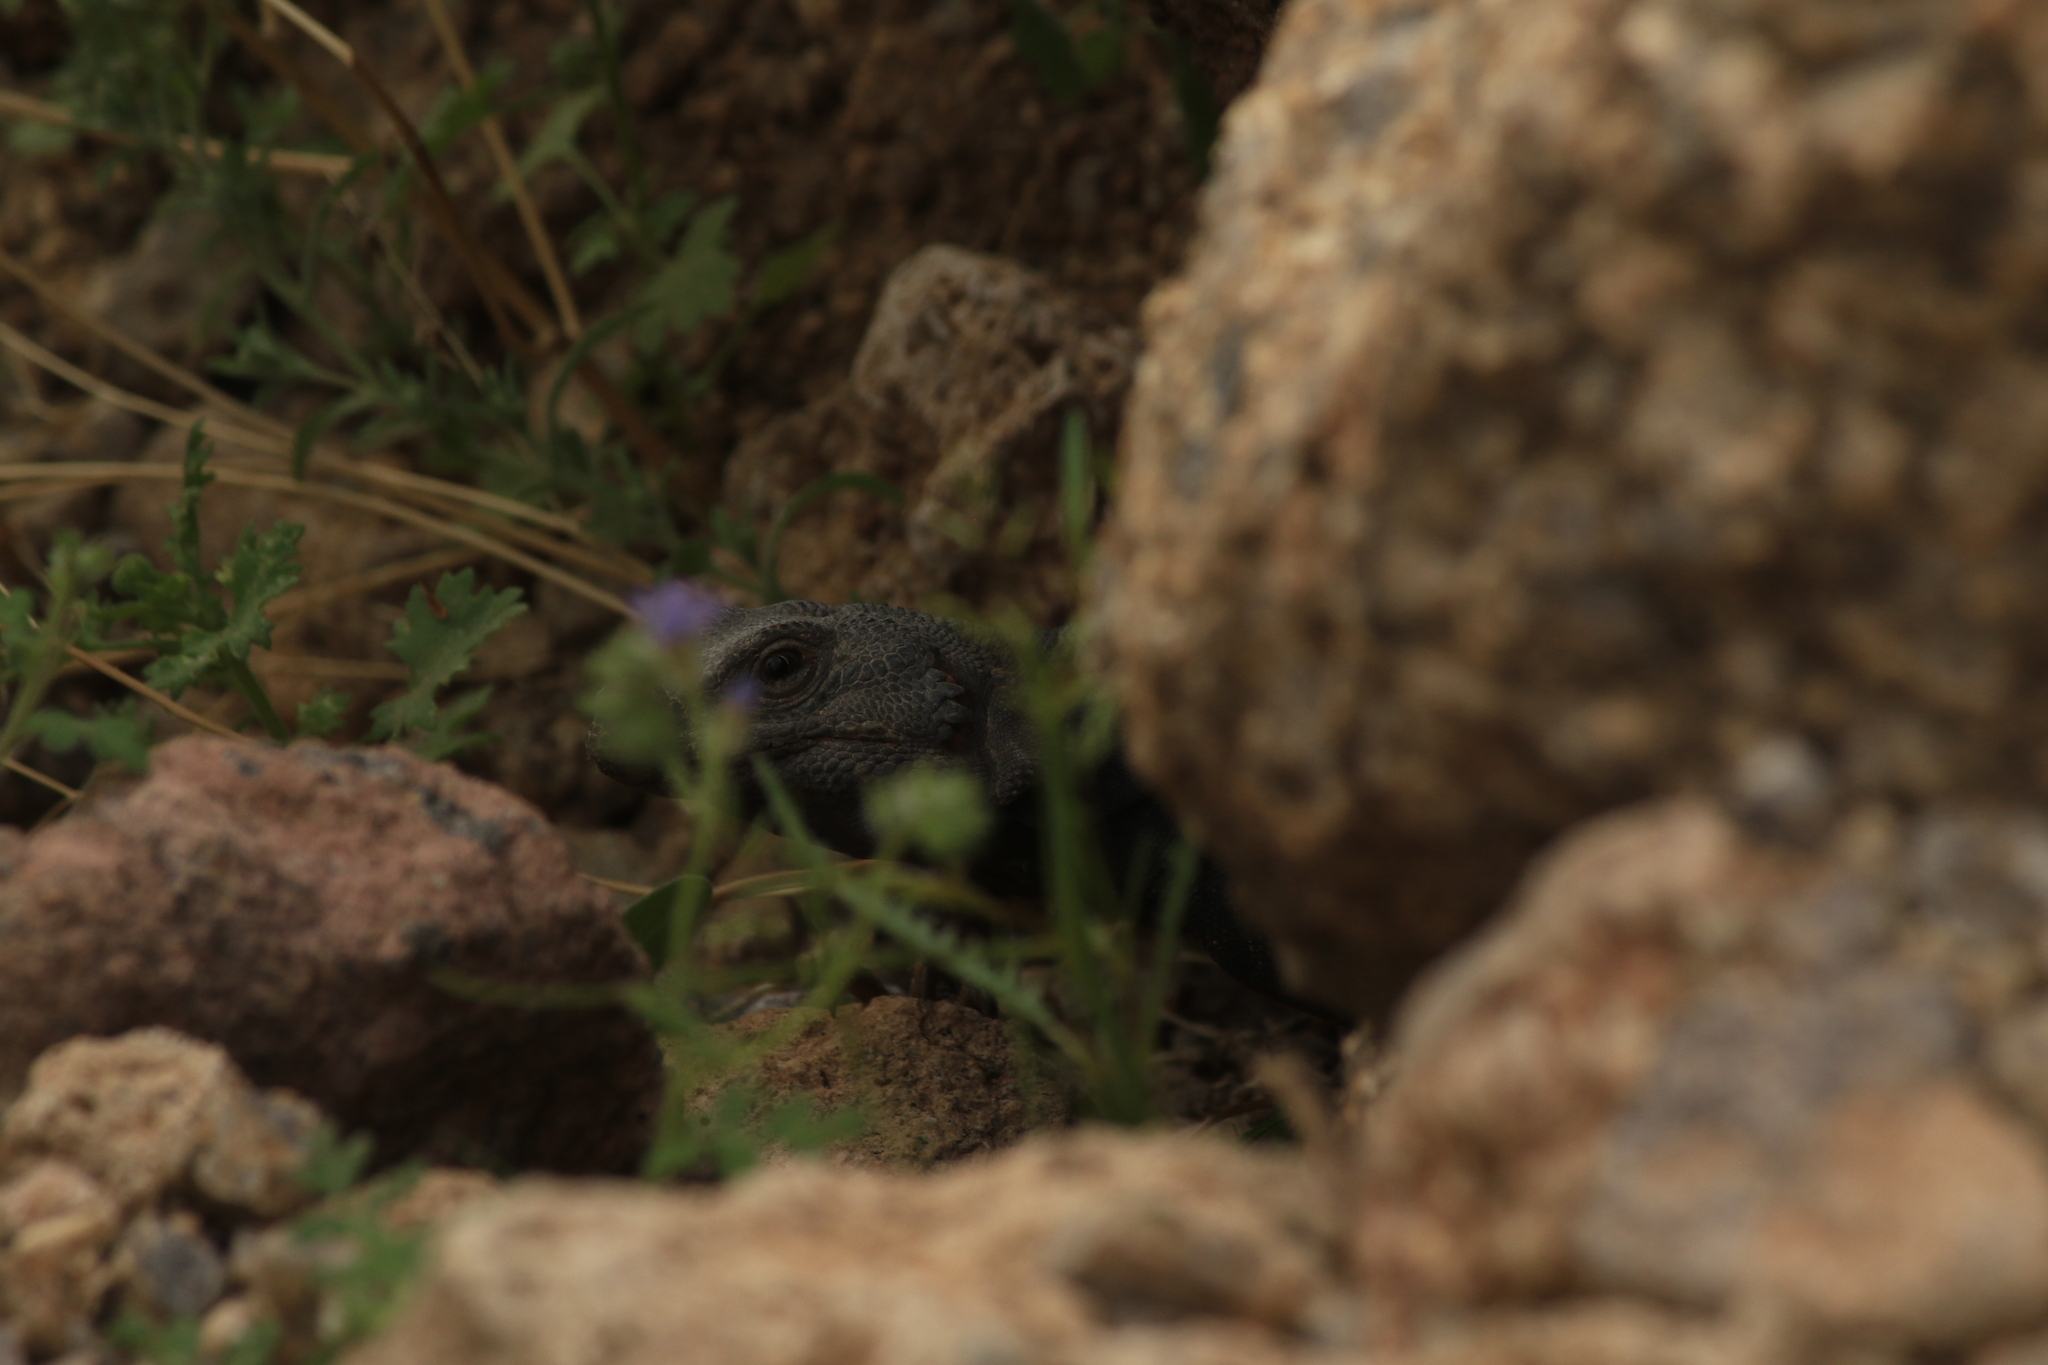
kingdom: Animalia
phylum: Chordata
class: Squamata
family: Iguanidae
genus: Sauromalus
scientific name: Sauromalus ater
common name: Northern chuckwalla
